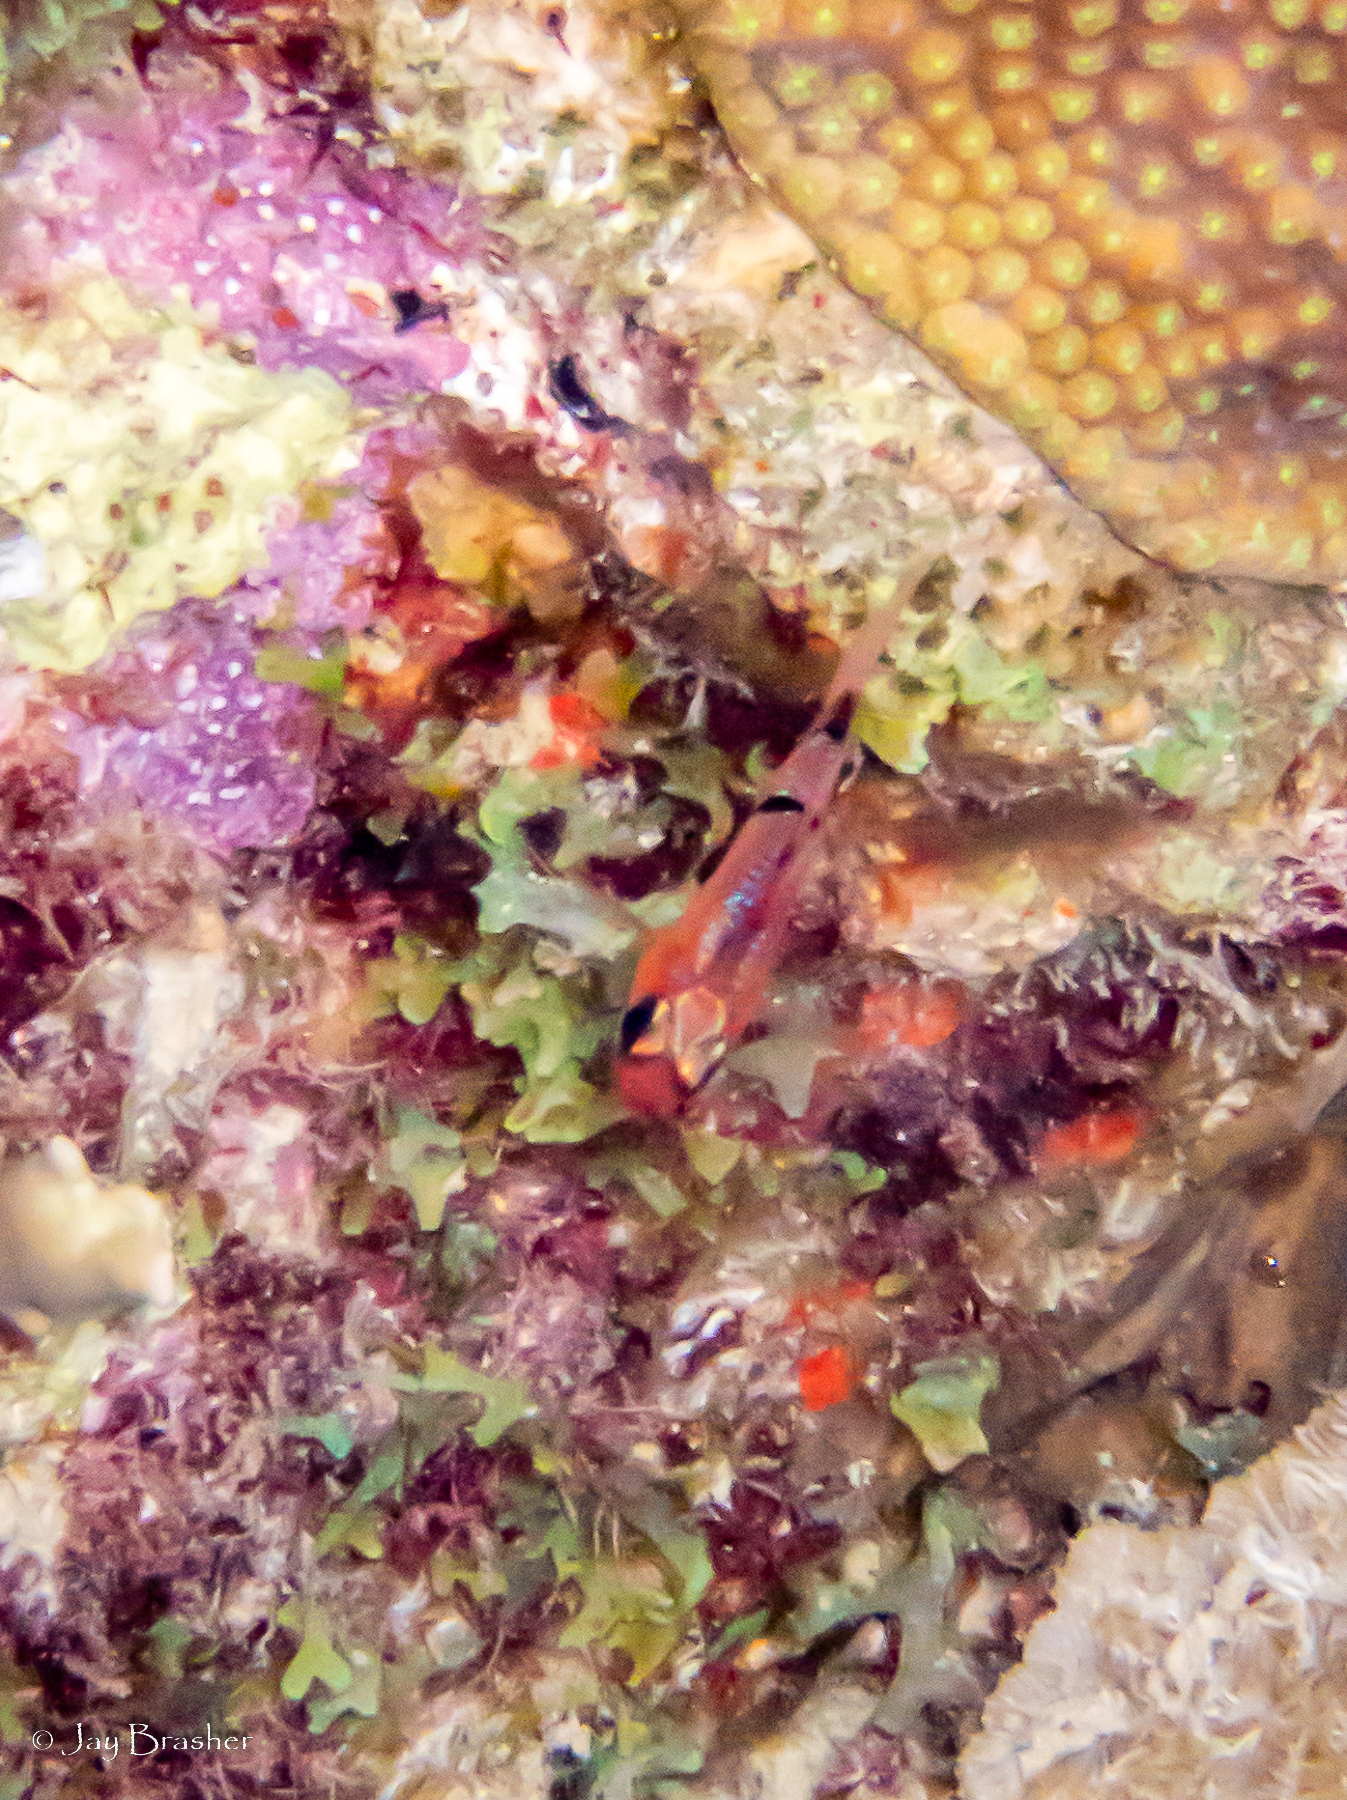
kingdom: Animalia
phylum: Chordata
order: Perciformes
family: Apogonidae
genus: Apogon
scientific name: Apogon townsendi
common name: Belted cardinalfish
